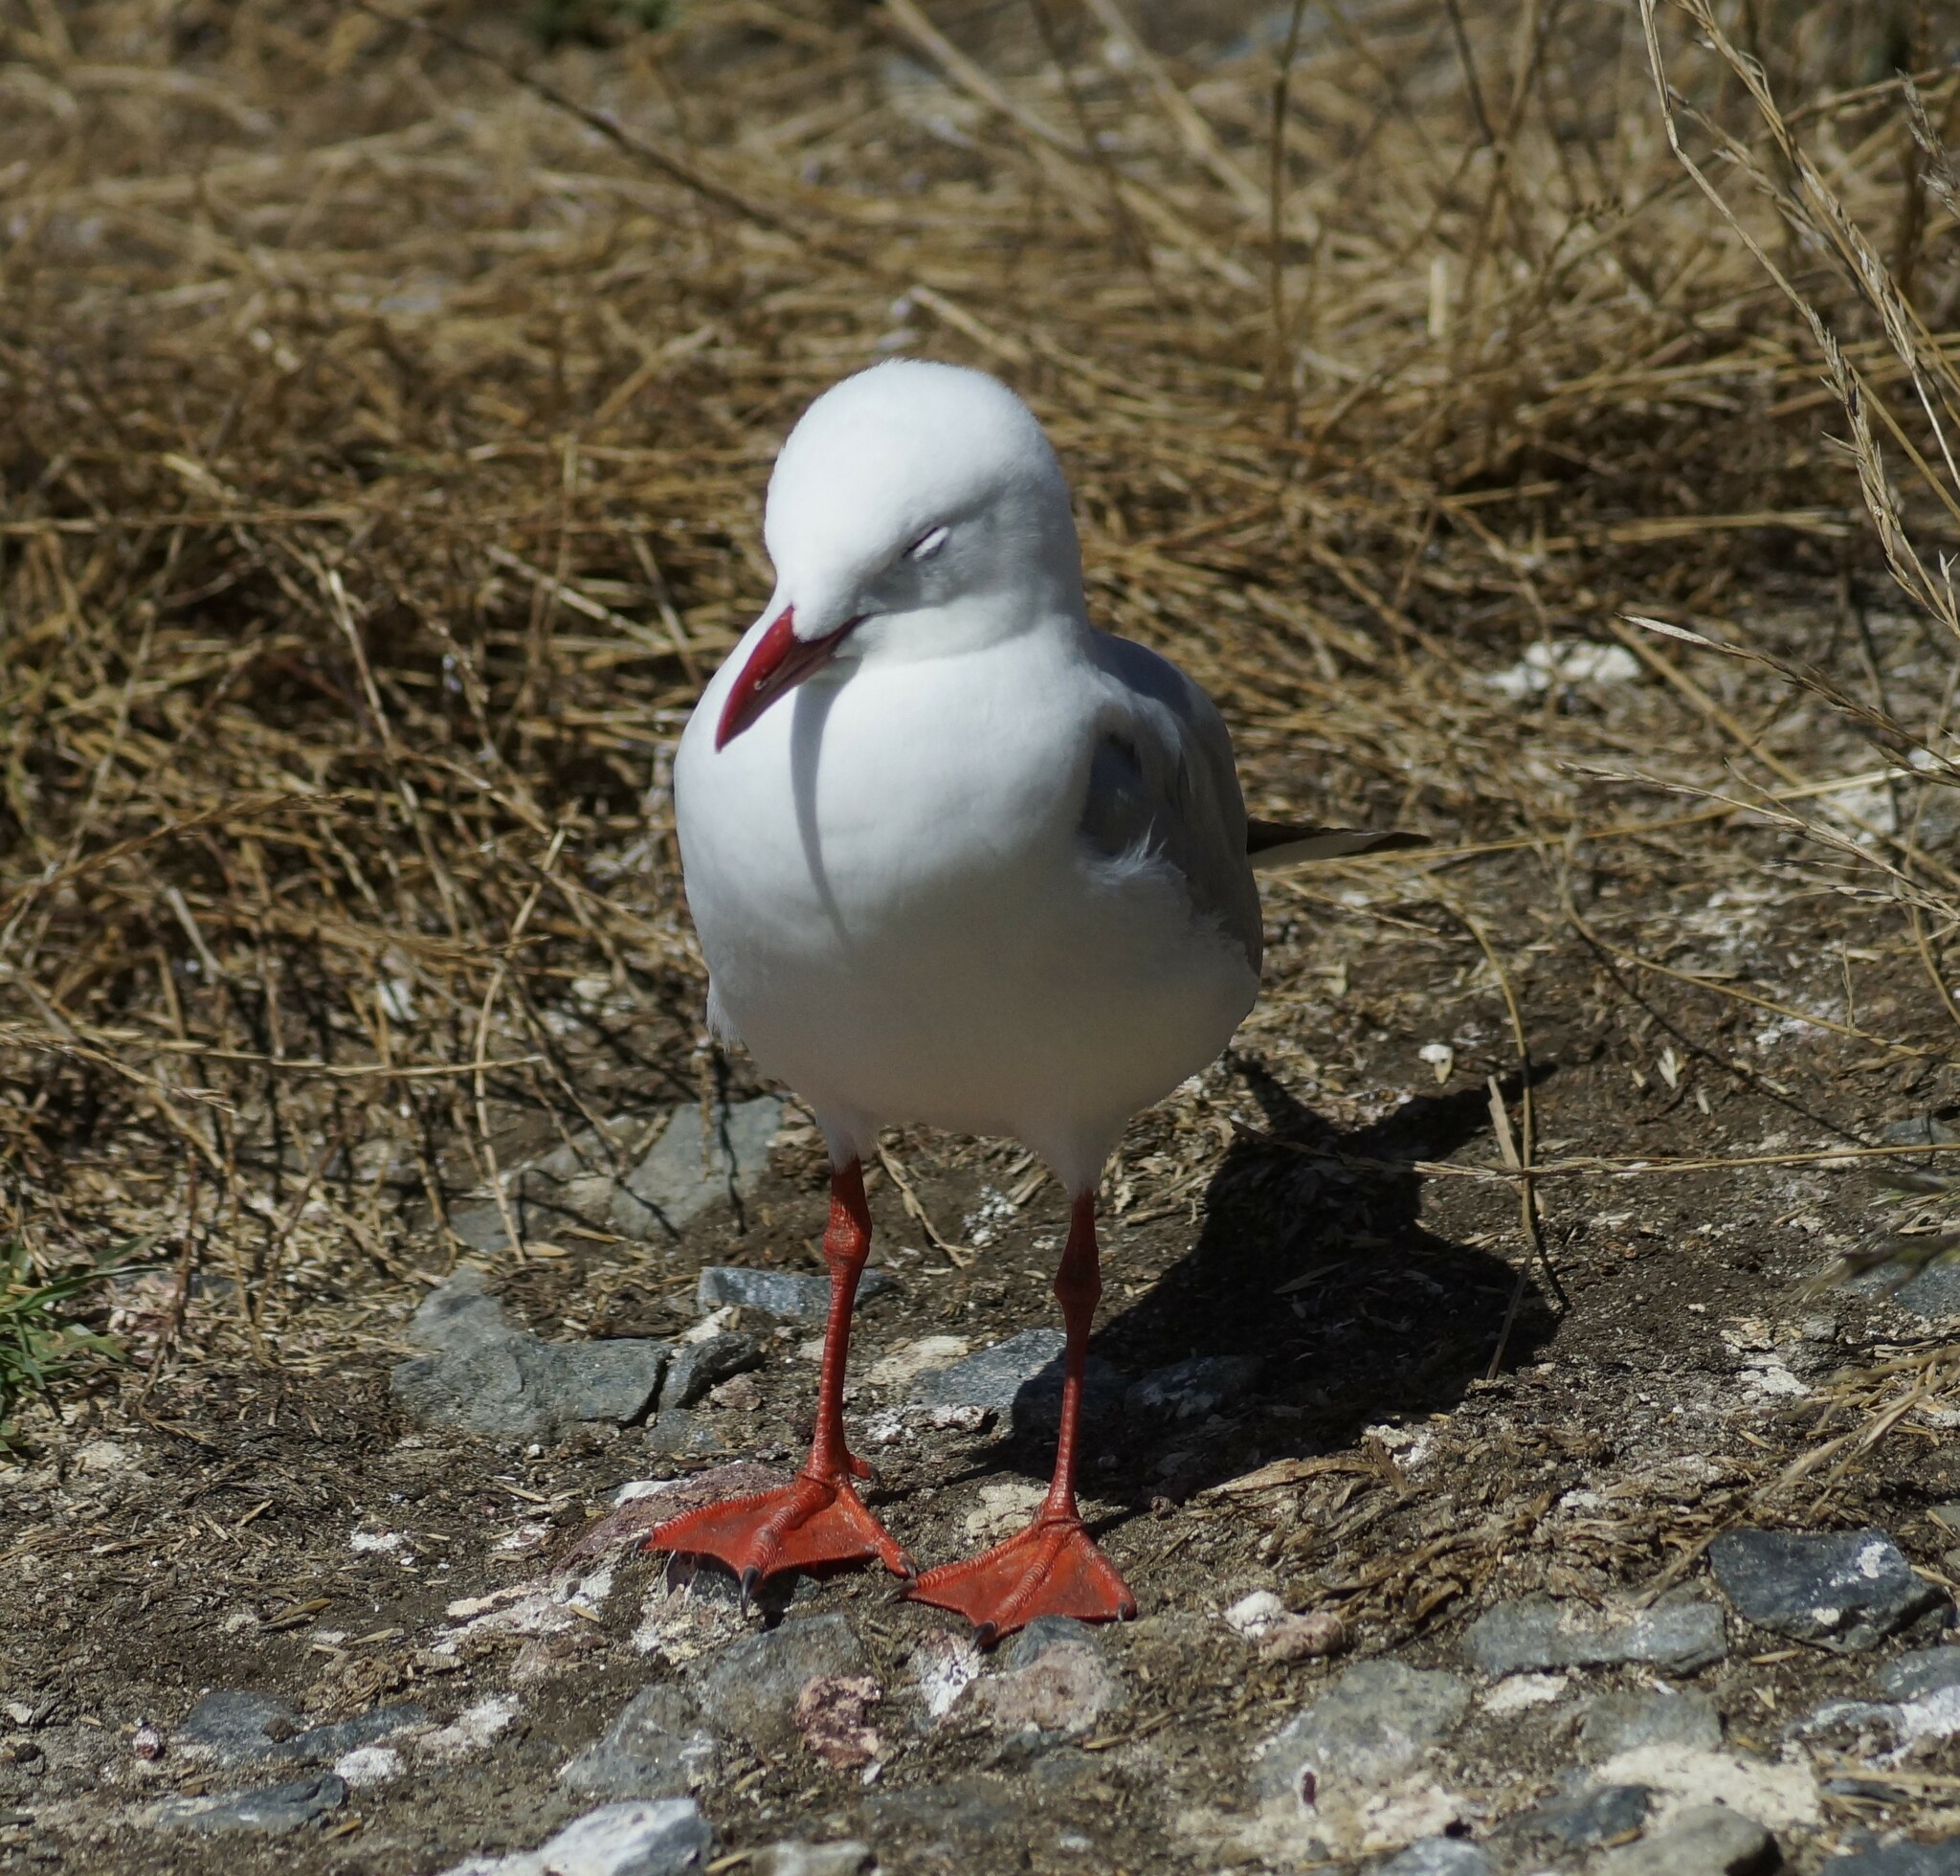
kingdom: Animalia
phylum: Chordata
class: Aves
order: Charadriiformes
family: Laridae
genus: Chroicocephalus
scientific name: Chroicocephalus novaehollandiae
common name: Silver gull
